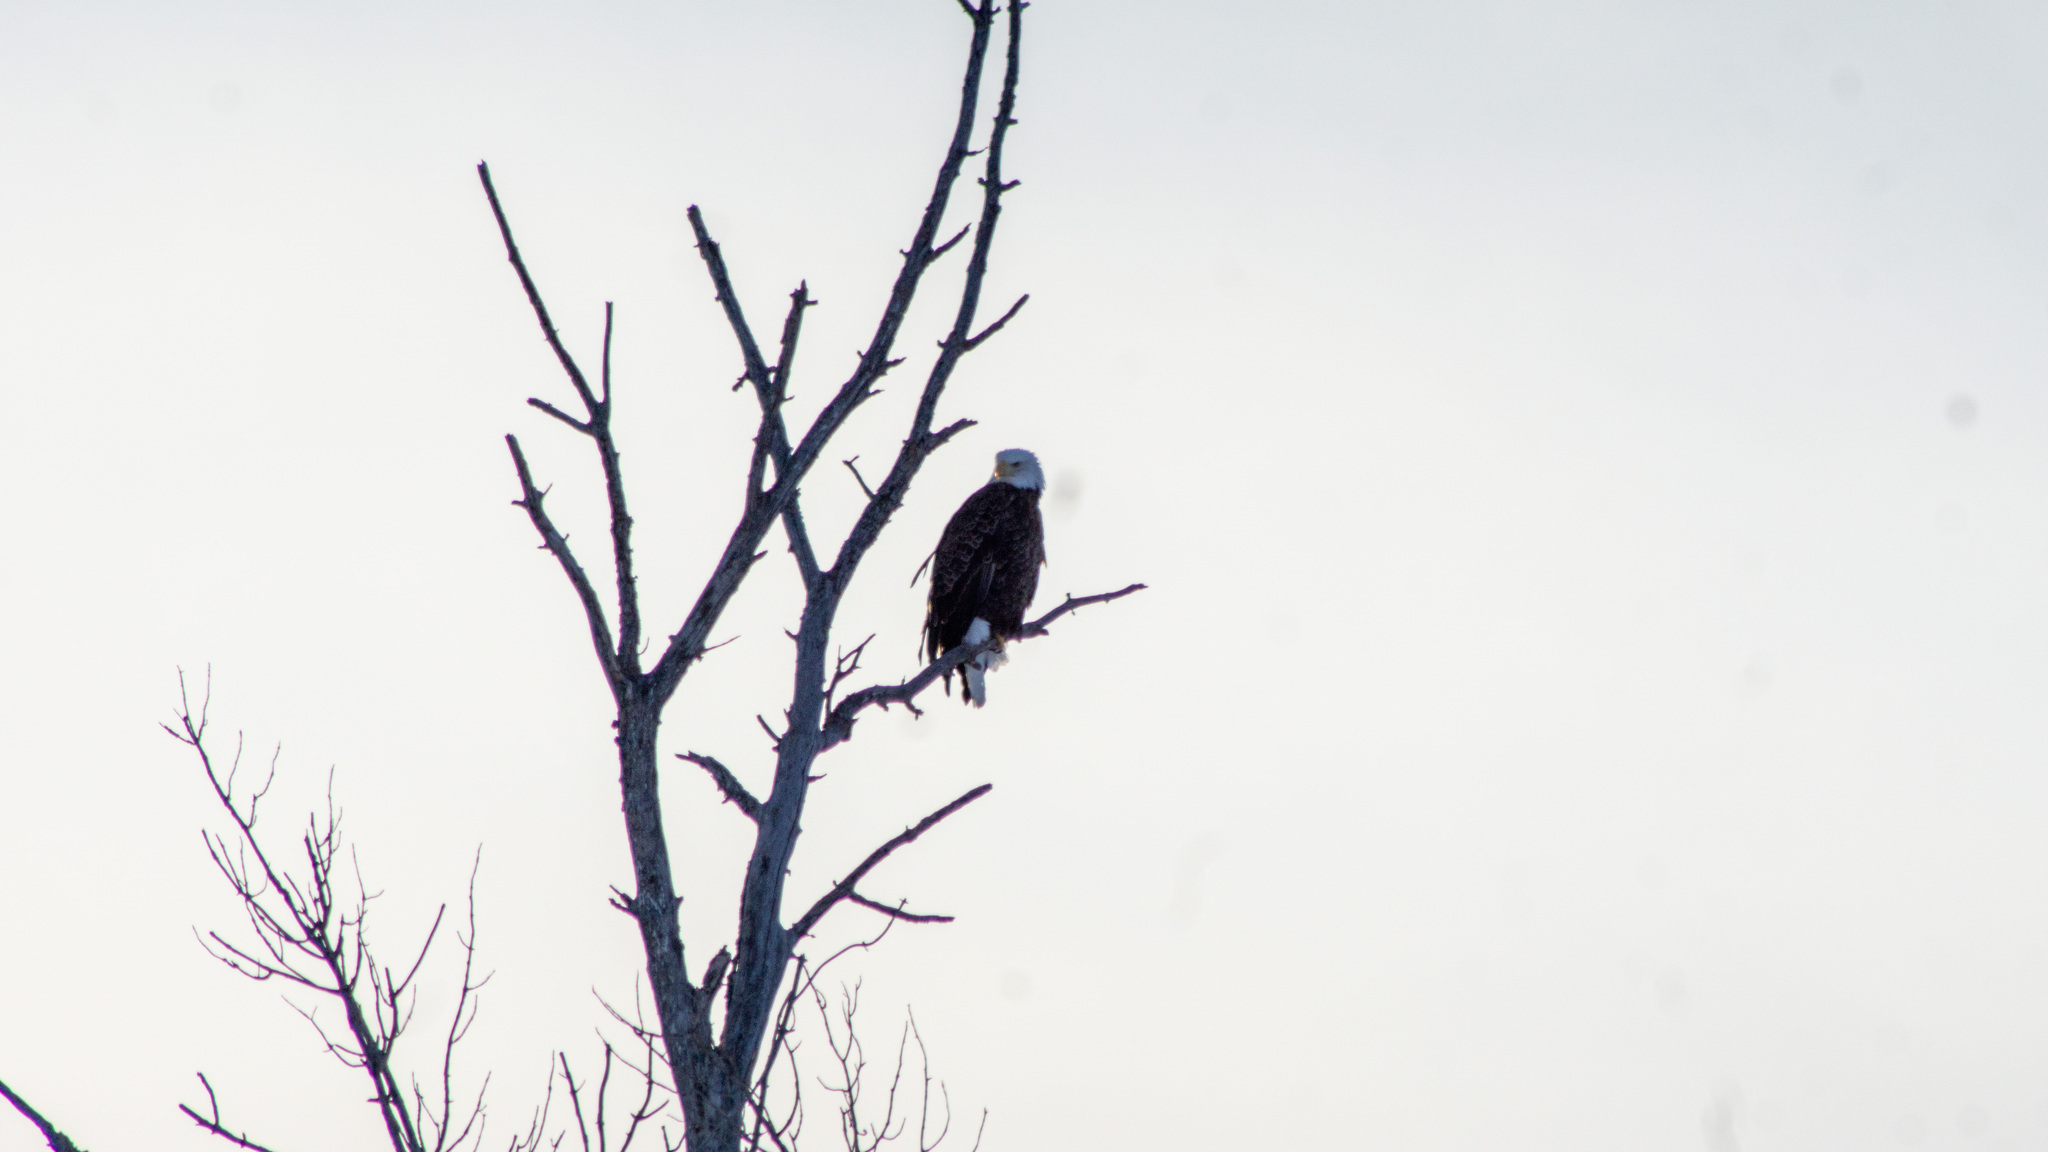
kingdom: Animalia
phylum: Chordata
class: Aves
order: Accipitriformes
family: Accipitridae
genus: Haliaeetus
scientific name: Haliaeetus leucocephalus
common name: Bald eagle
